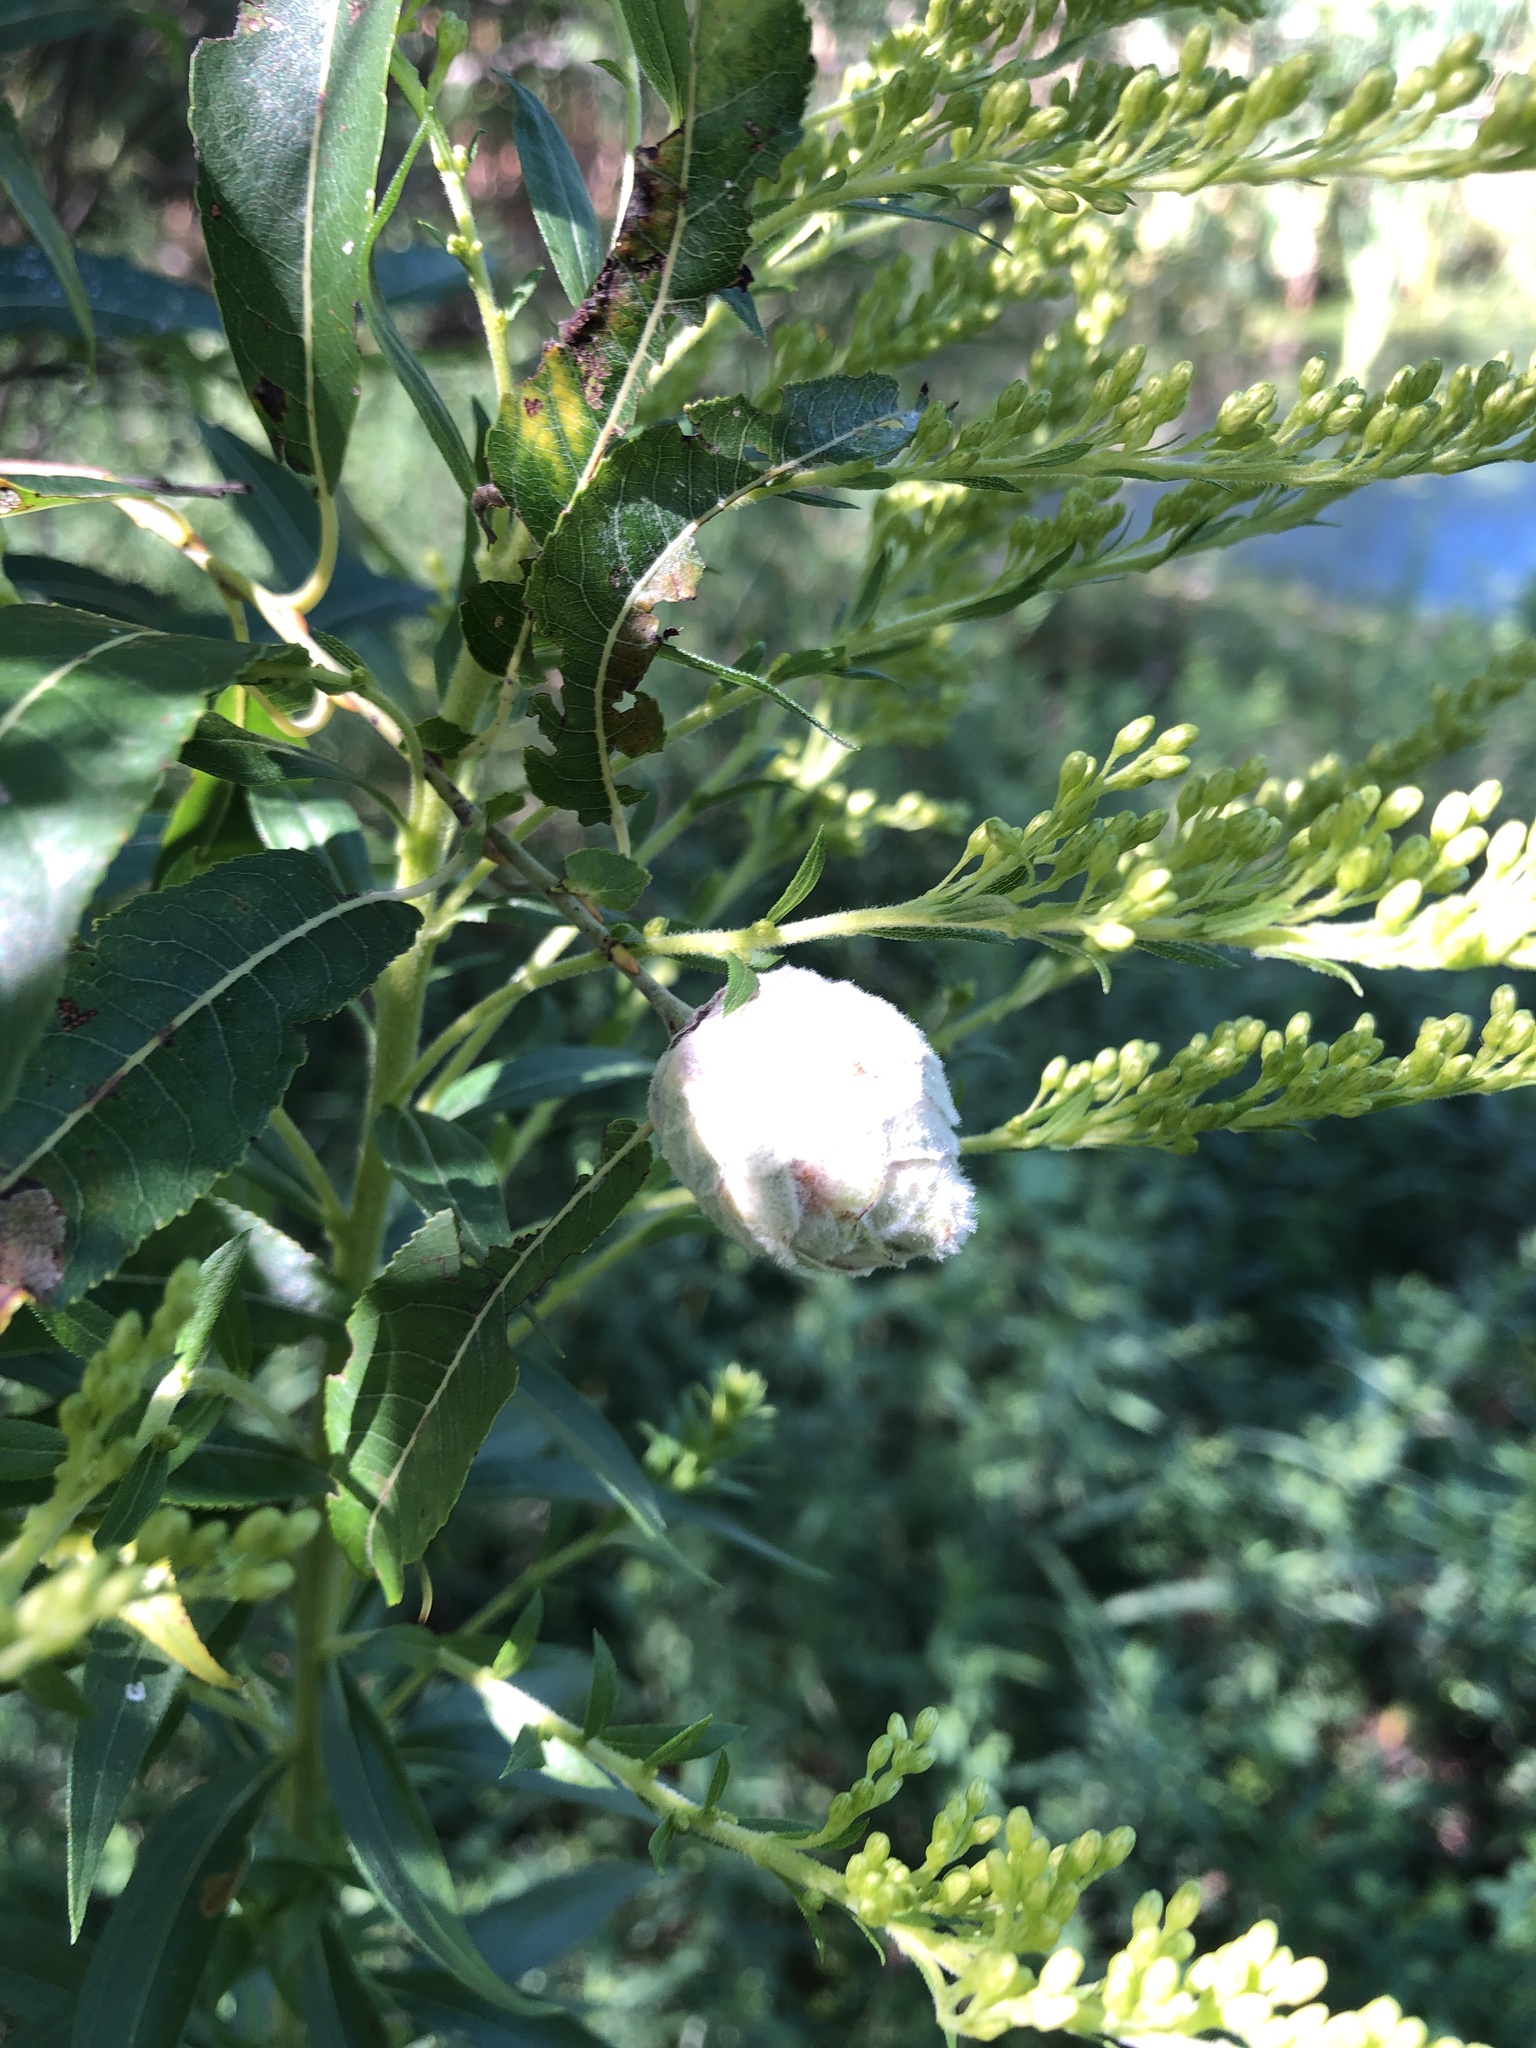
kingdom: Animalia
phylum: Arthropoda
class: Insecta
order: Diptera
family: Cecidomyiidae
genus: Rabdophaga
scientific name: Rabdophaga strobiloides
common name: Willow pinecone gall midge
